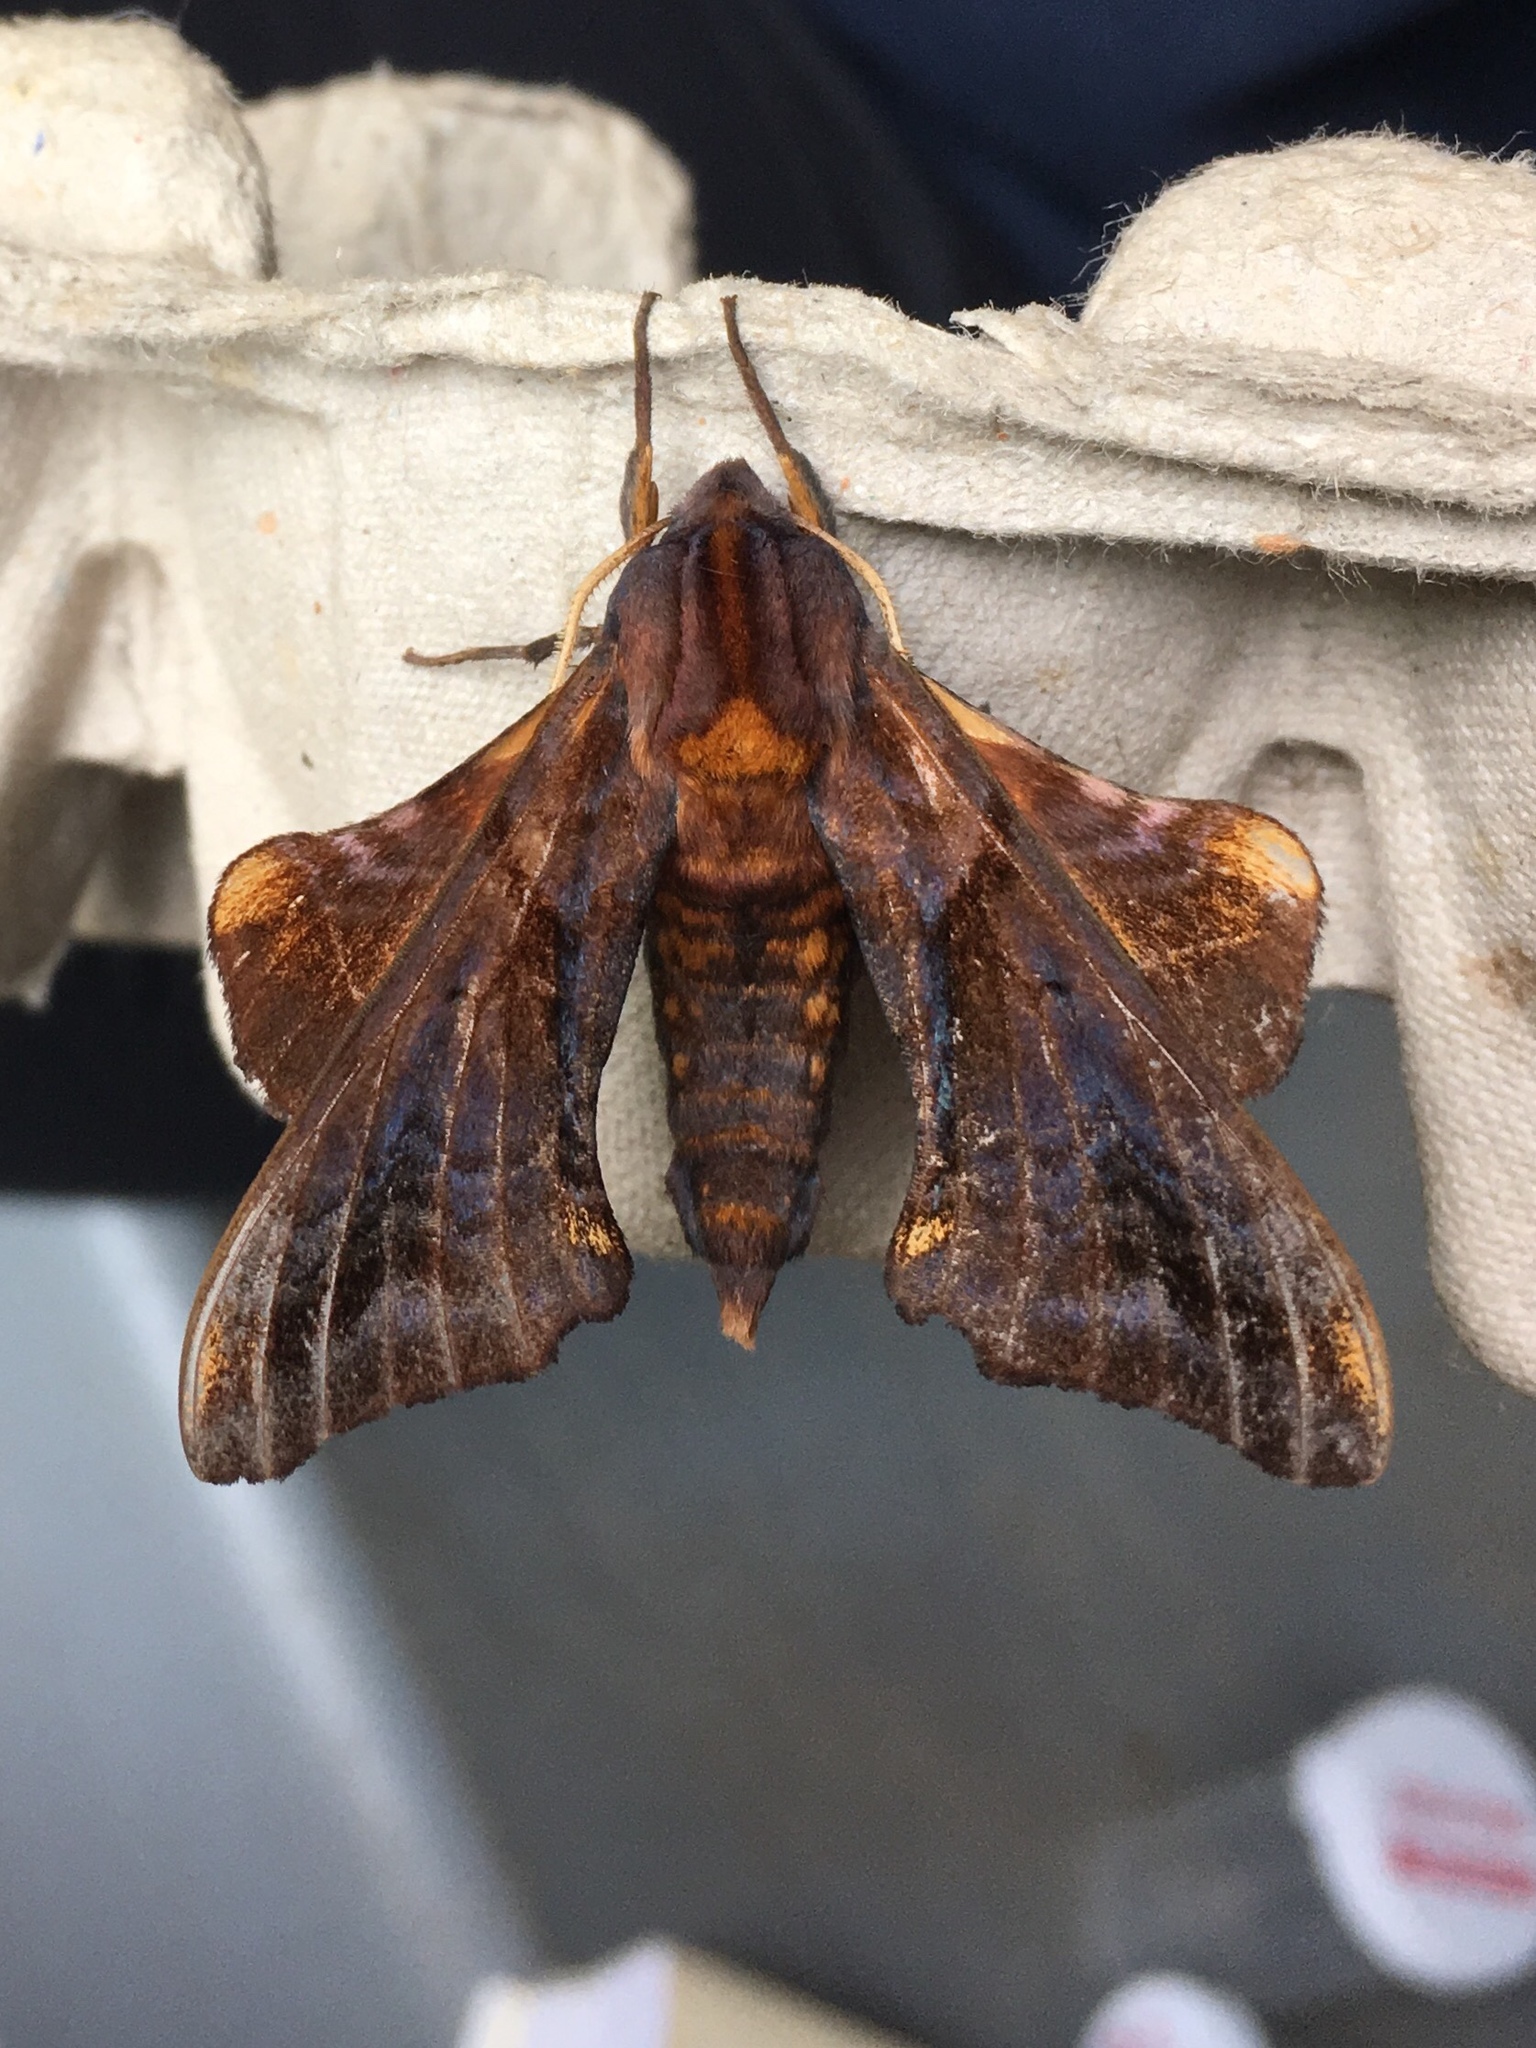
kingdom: Animalia
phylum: Arthropoda
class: Insecta
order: Lepidoptera
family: Sphingidae
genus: Paonias
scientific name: Paonias myops
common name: Small-eyed sphinx
